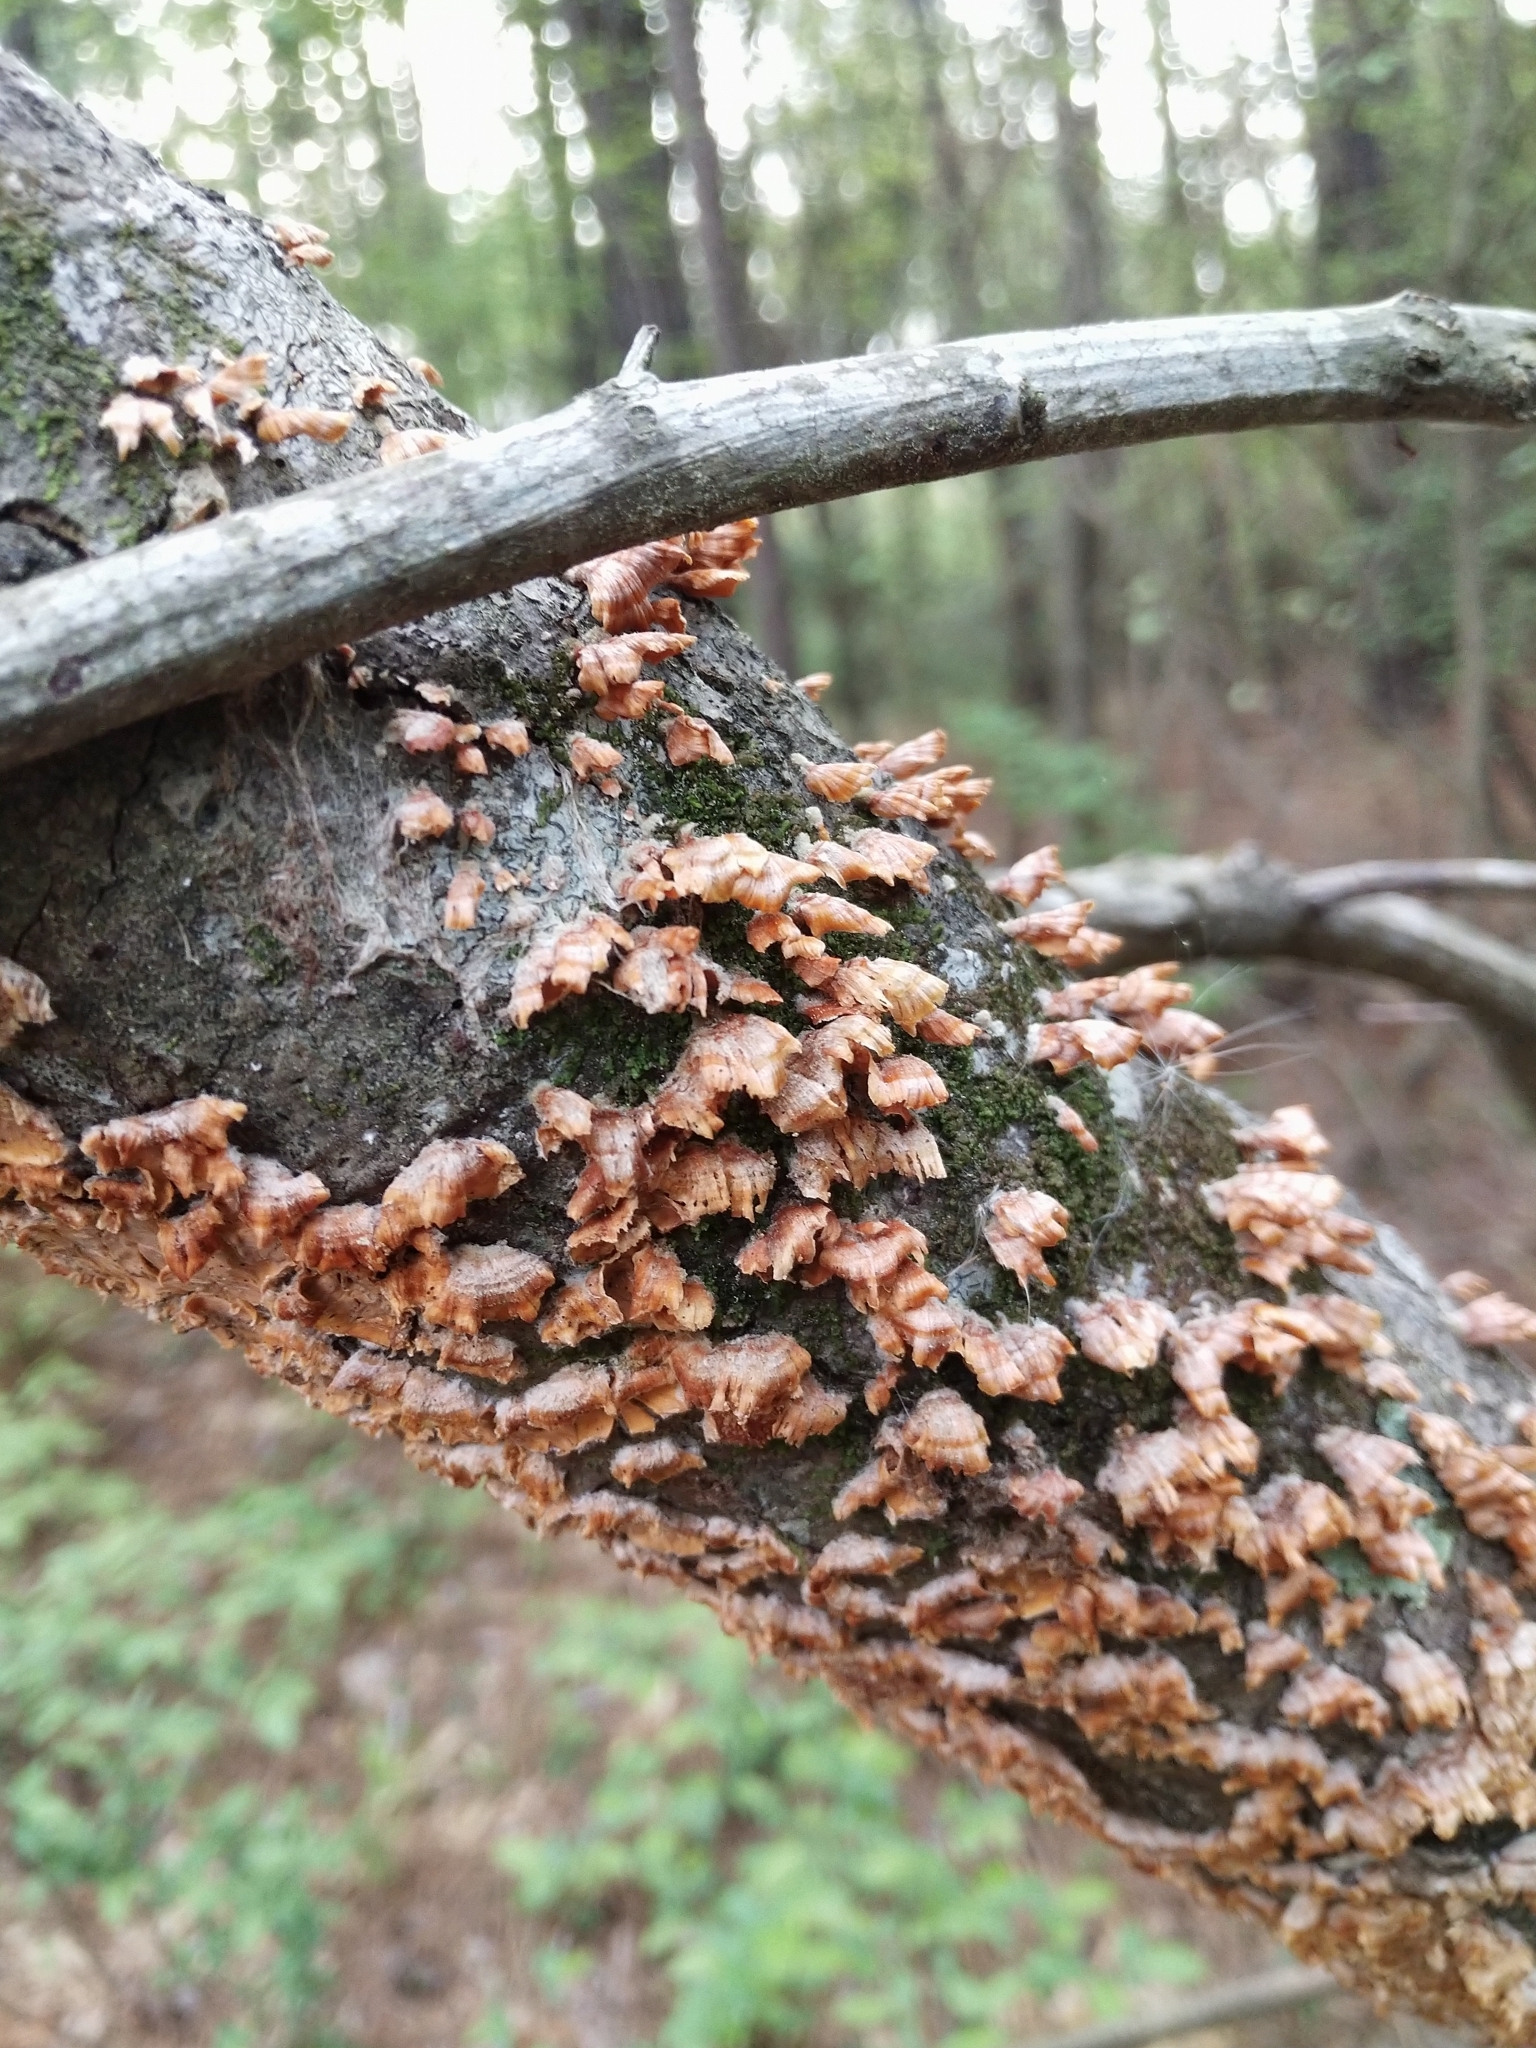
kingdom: Fungi
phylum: Basidiomycota
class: Agaricomycetes
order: Russulales
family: Stereaceae
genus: Stereum
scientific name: Stereum complicatum
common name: Crowded parchment
